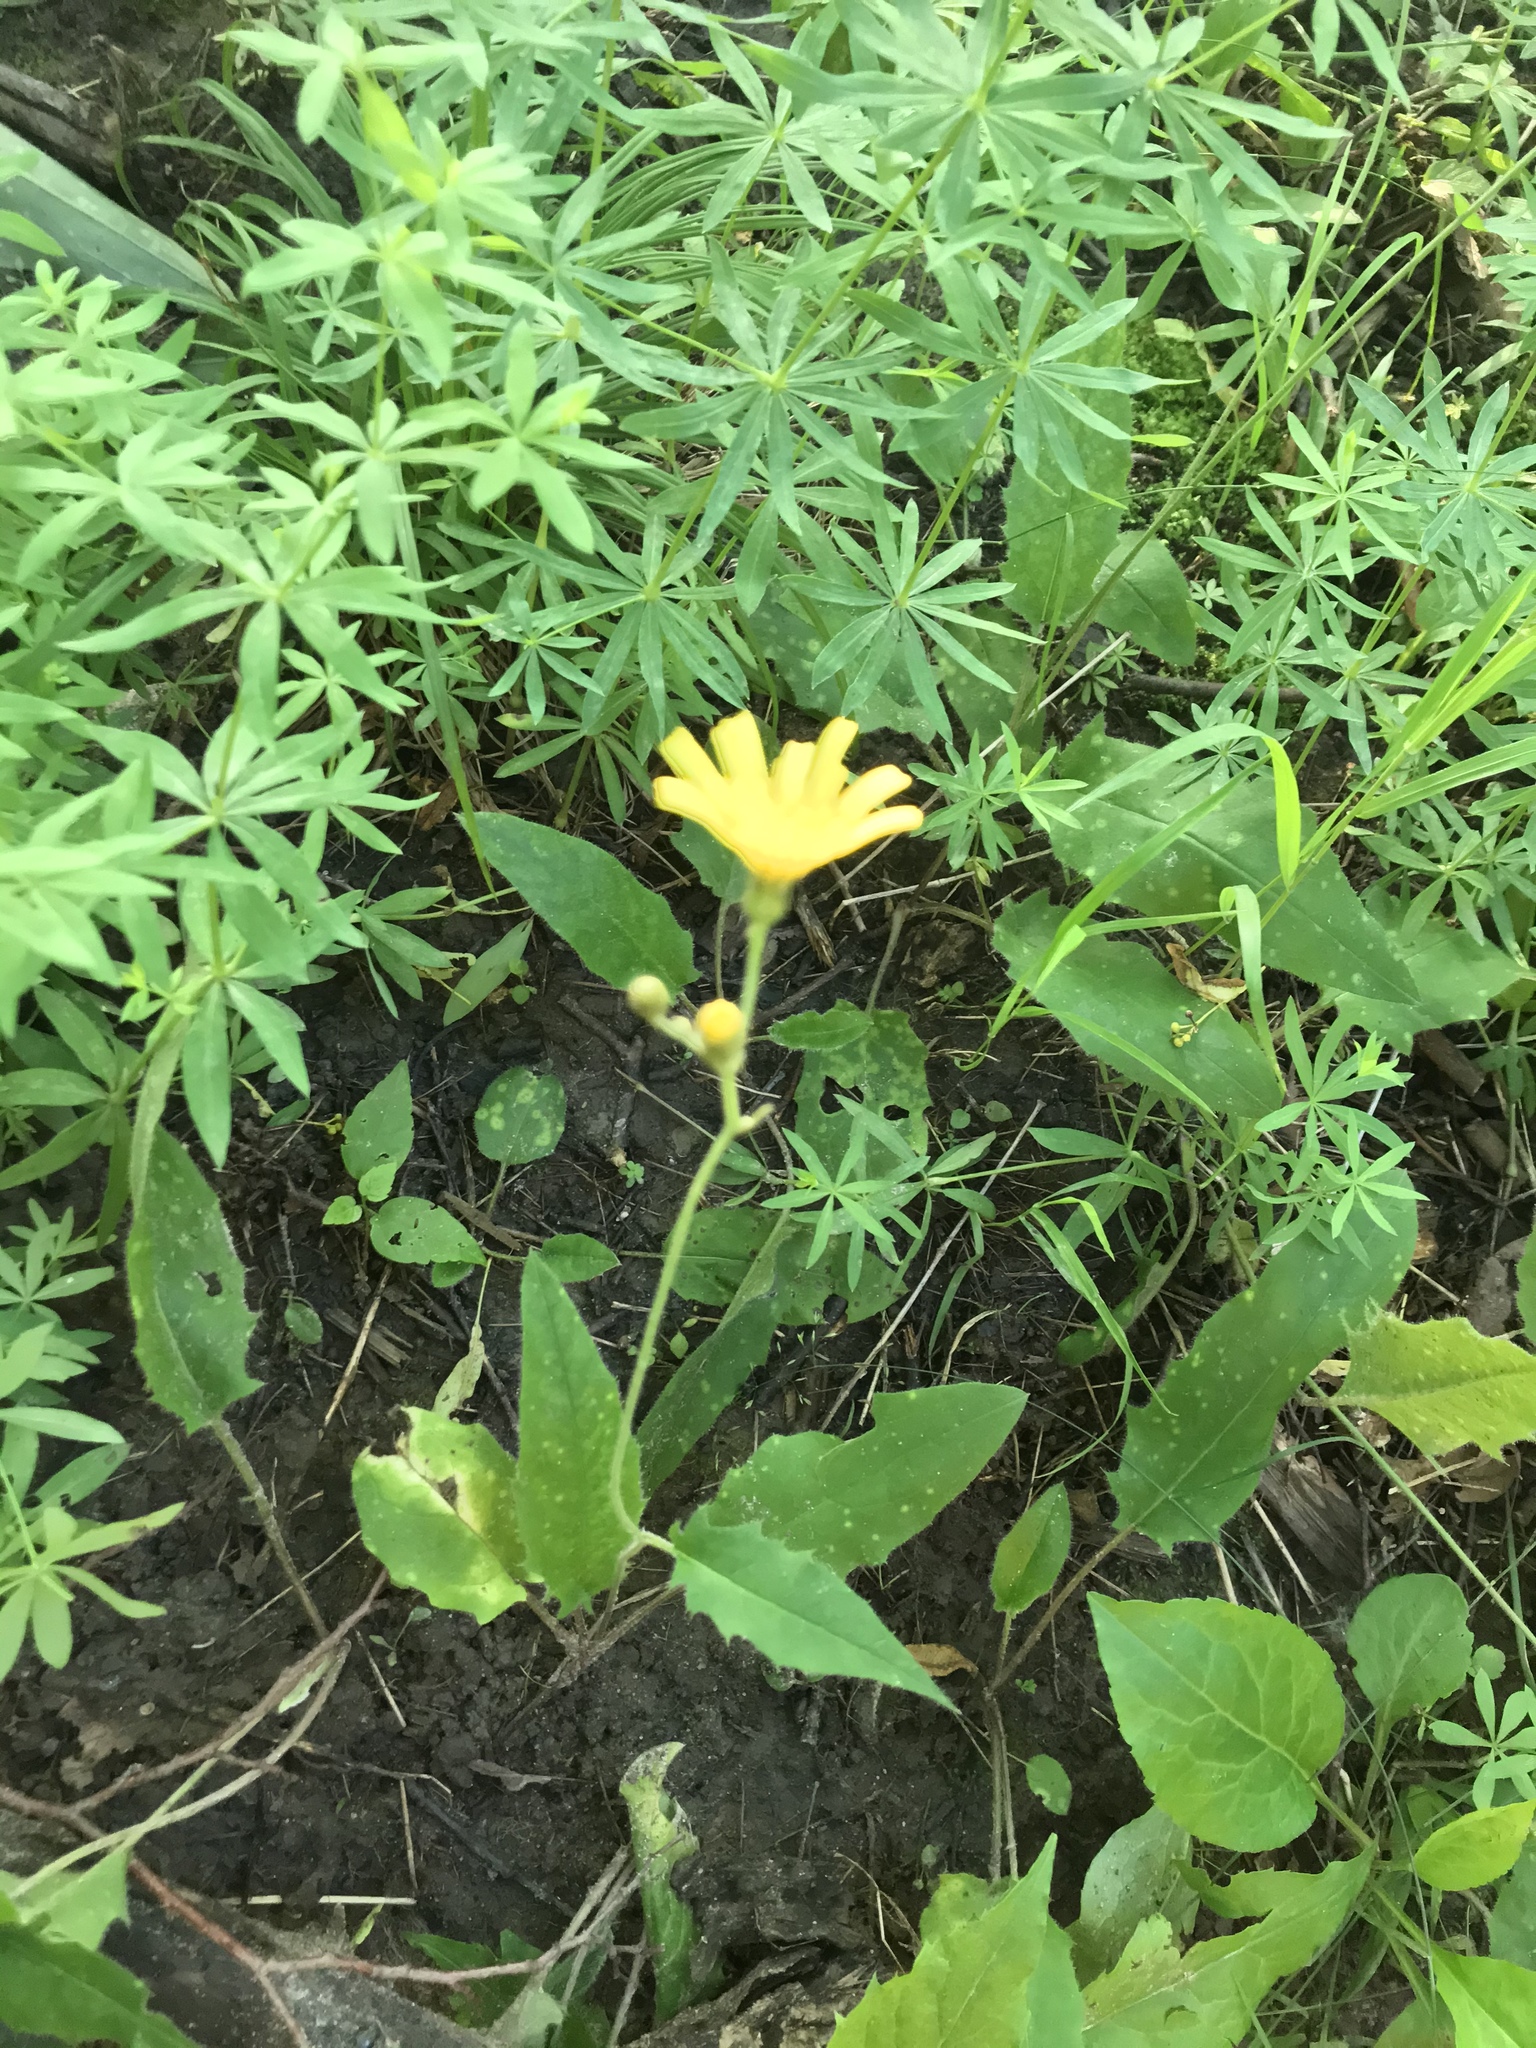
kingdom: Plantae
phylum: Tracheophyta
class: Magnoliopsida
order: Asterales
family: Asteraceae
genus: Hieracium
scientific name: Hieracium
